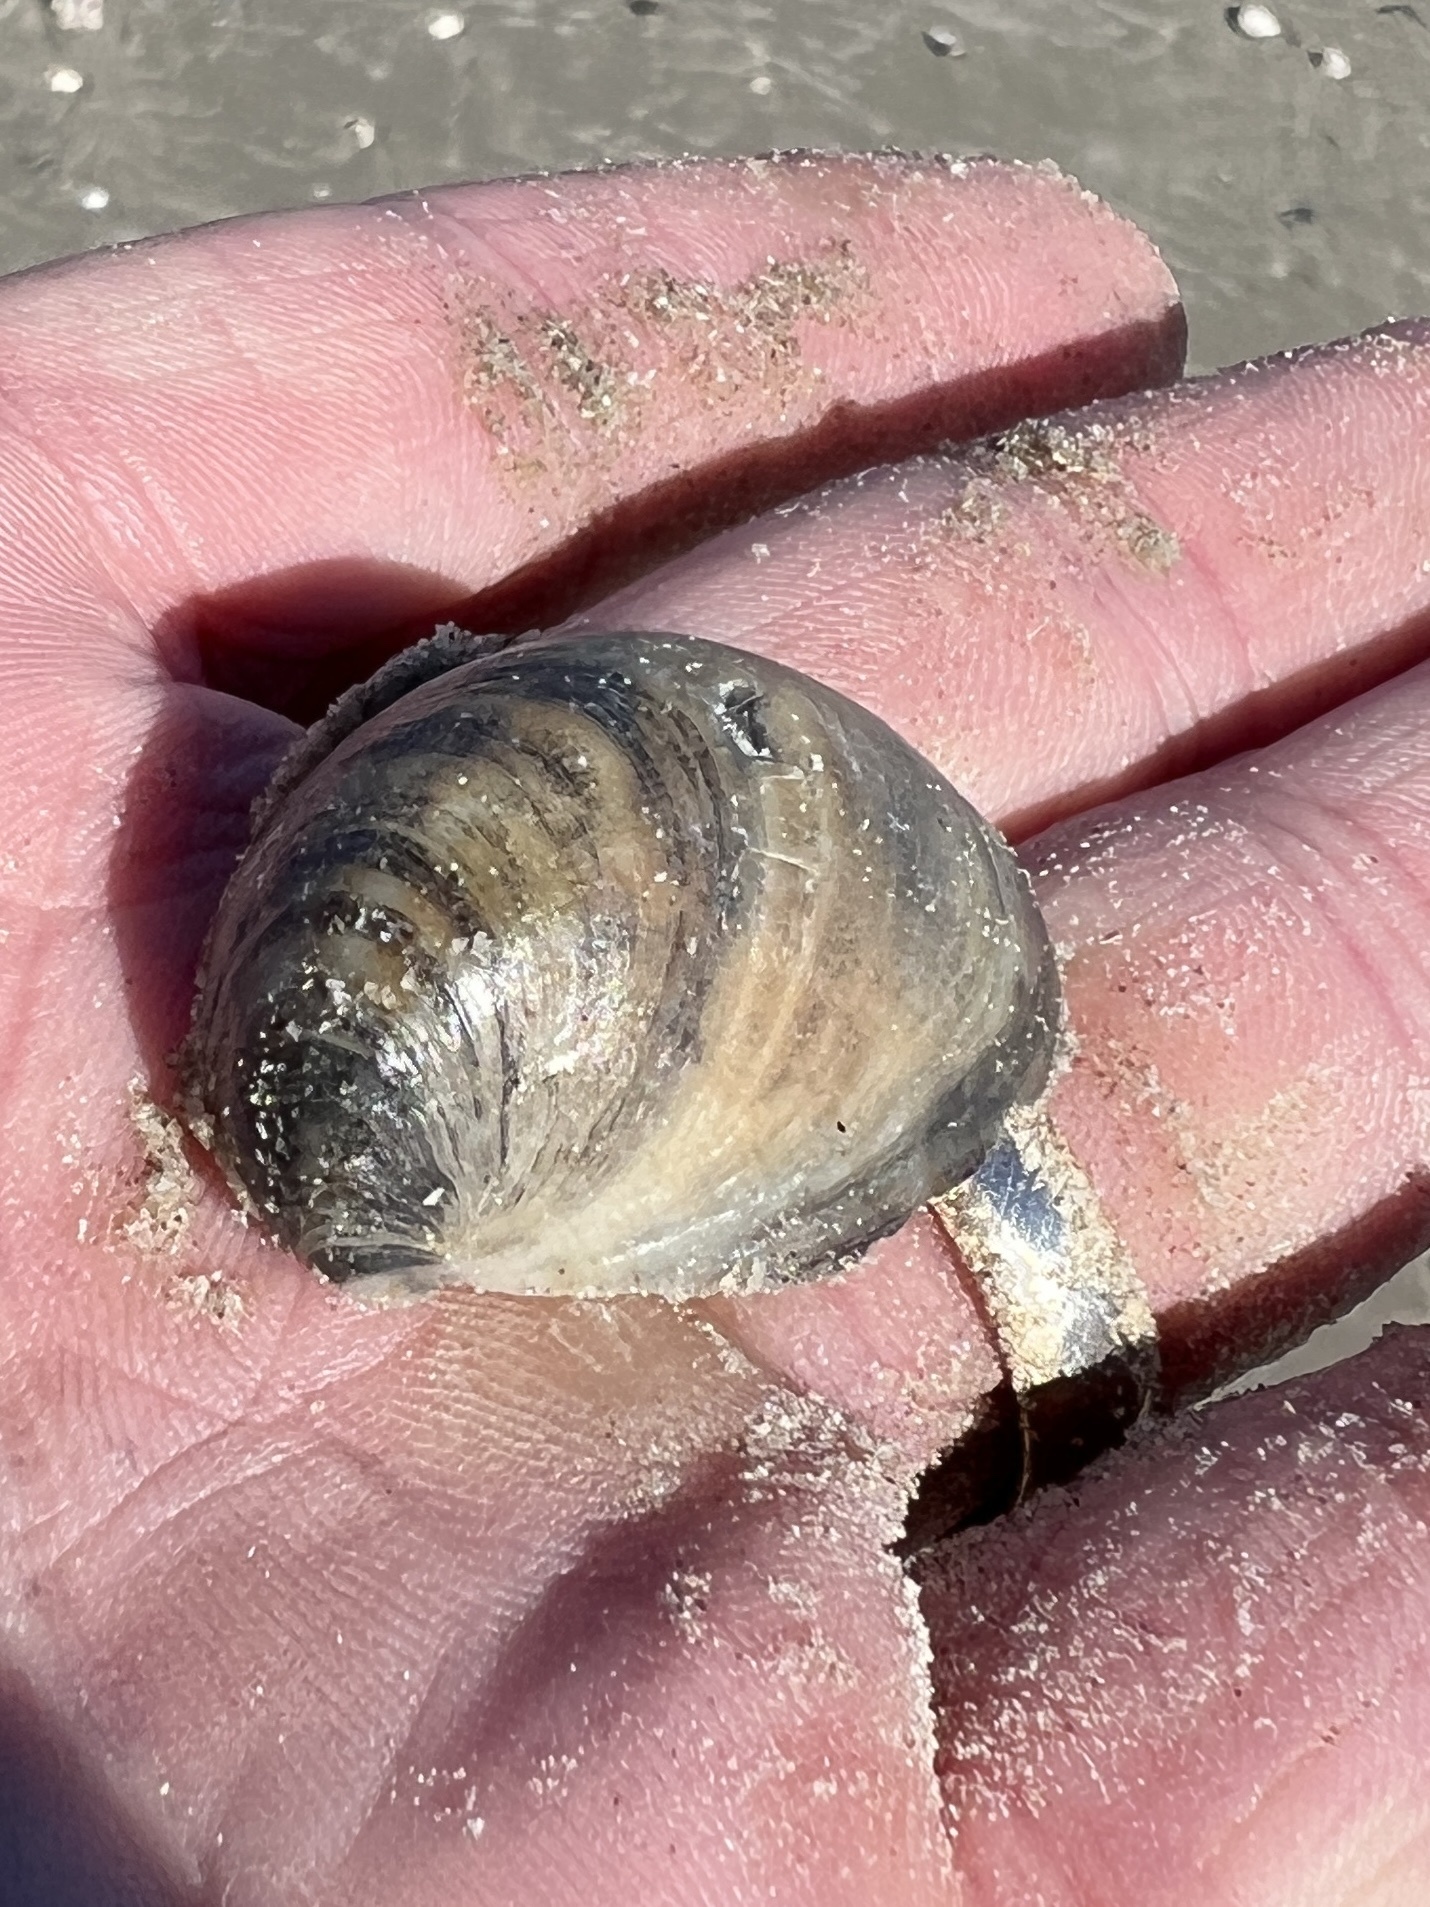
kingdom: Animalia
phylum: Mollusca
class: Gastropoda
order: Littorinimorpha
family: Calyptraeidae
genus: Crepidula
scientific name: Crepidula fornicata
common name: Slipper limpet
